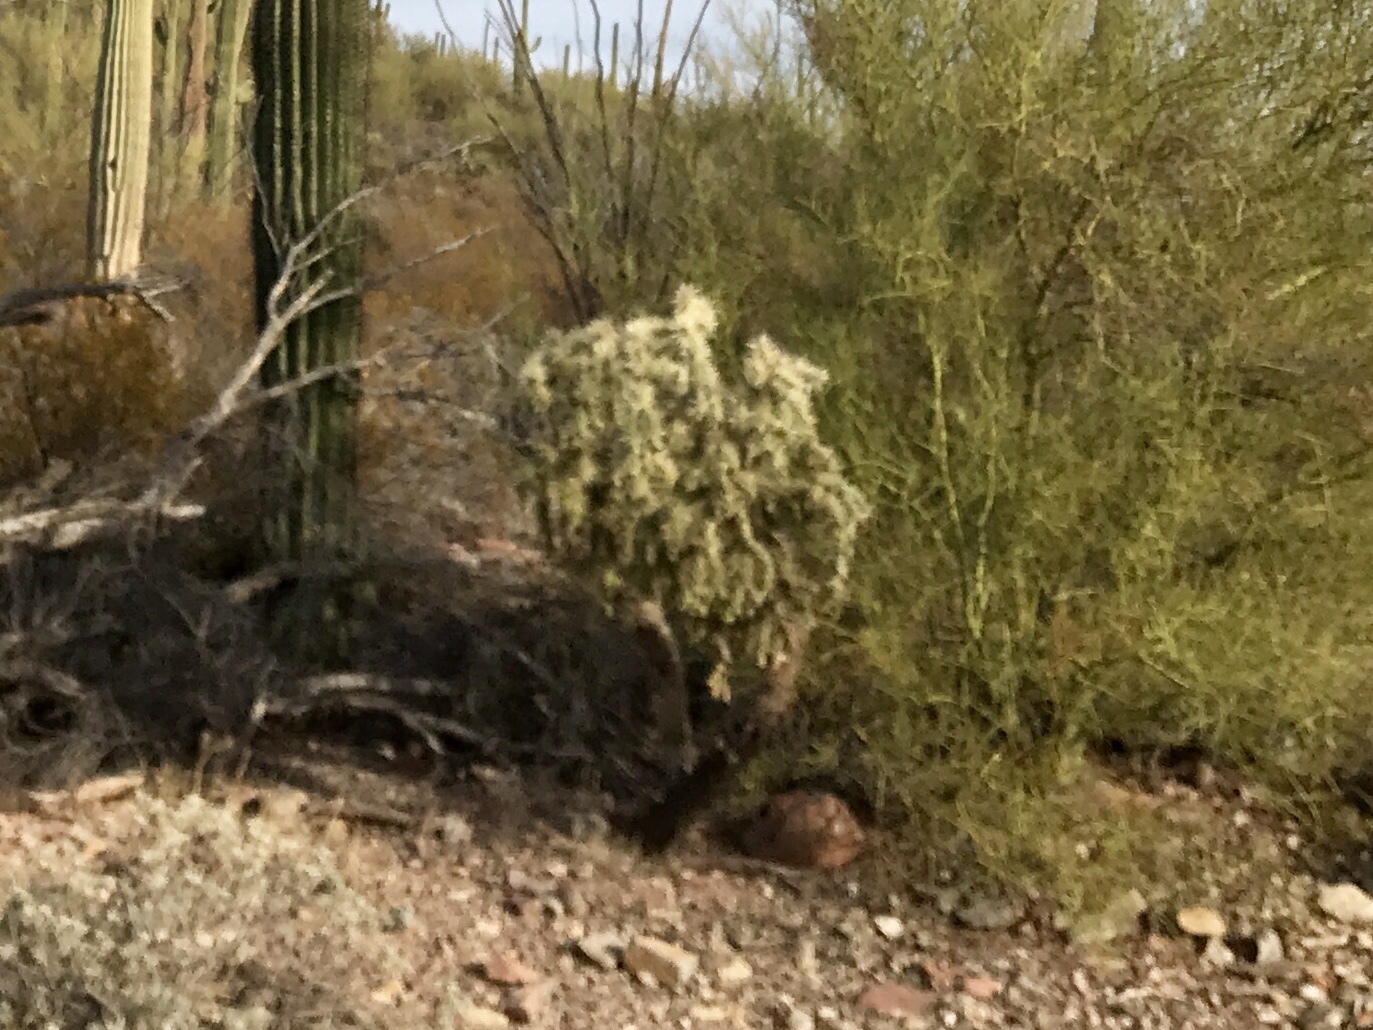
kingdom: Plantae
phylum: Tracheophyta
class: Magnoliopsida
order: Caryophyllales
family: Cactaceae
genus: Cylindropuntia
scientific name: Cylindropuntia fulgida
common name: Jumping cholla
